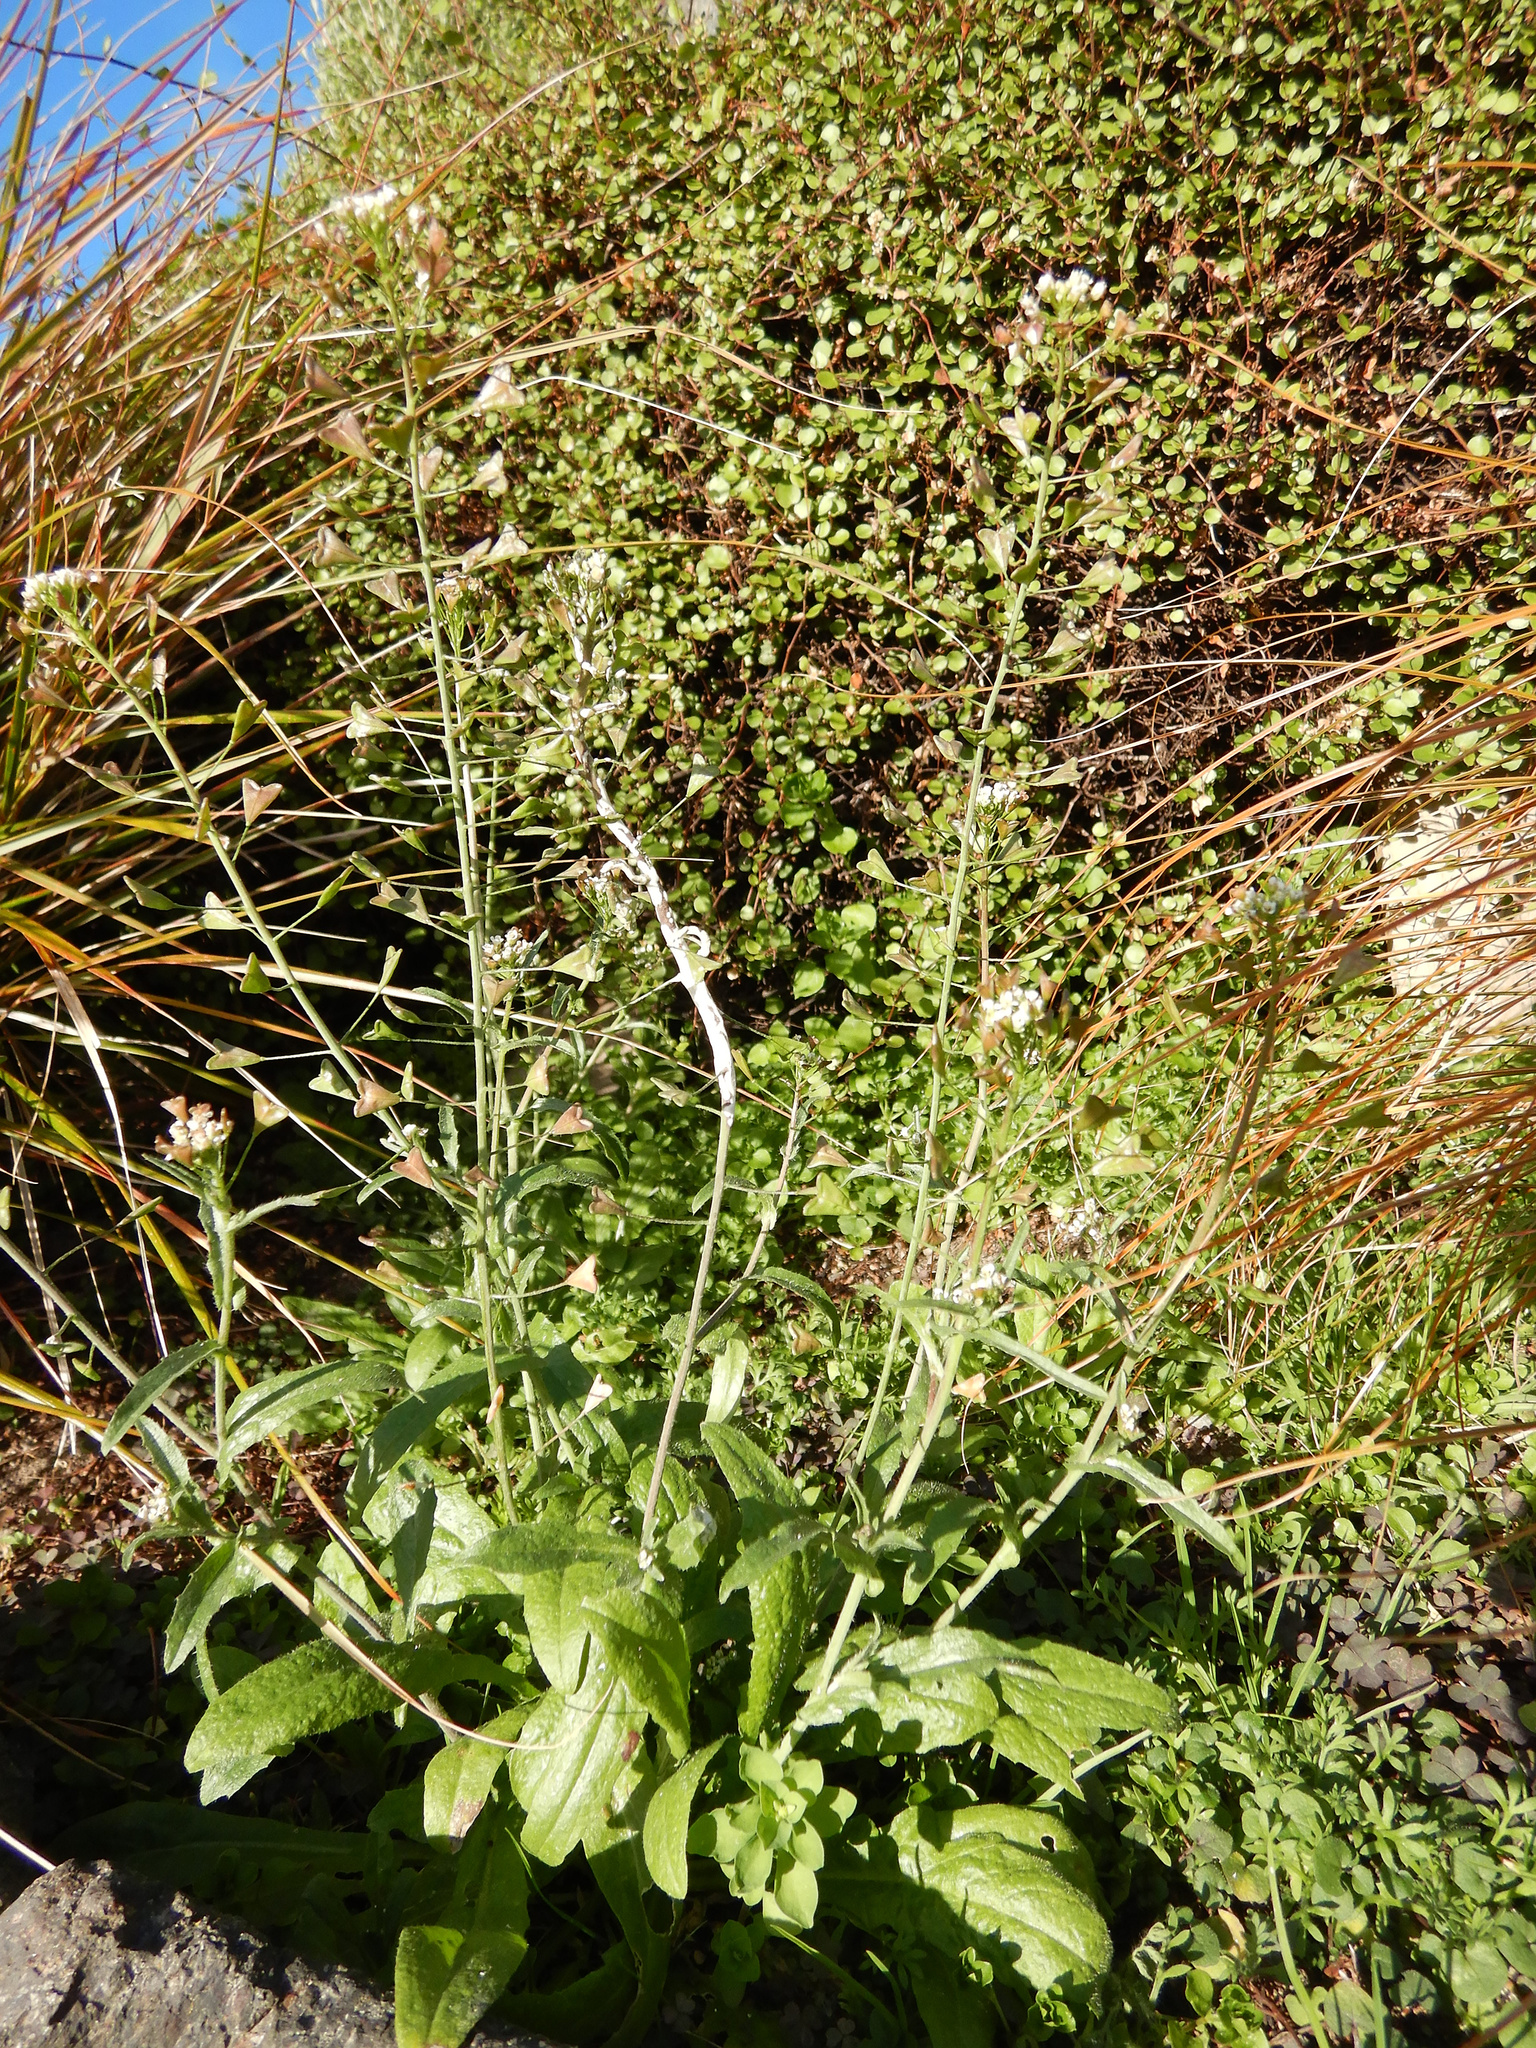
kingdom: Plantae
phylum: Tracheophyta
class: Magnoliopsida
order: Brassicales
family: Brassicaceae
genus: Capsella
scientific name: Capsella bursa-pastoris
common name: Shepherd's purse
